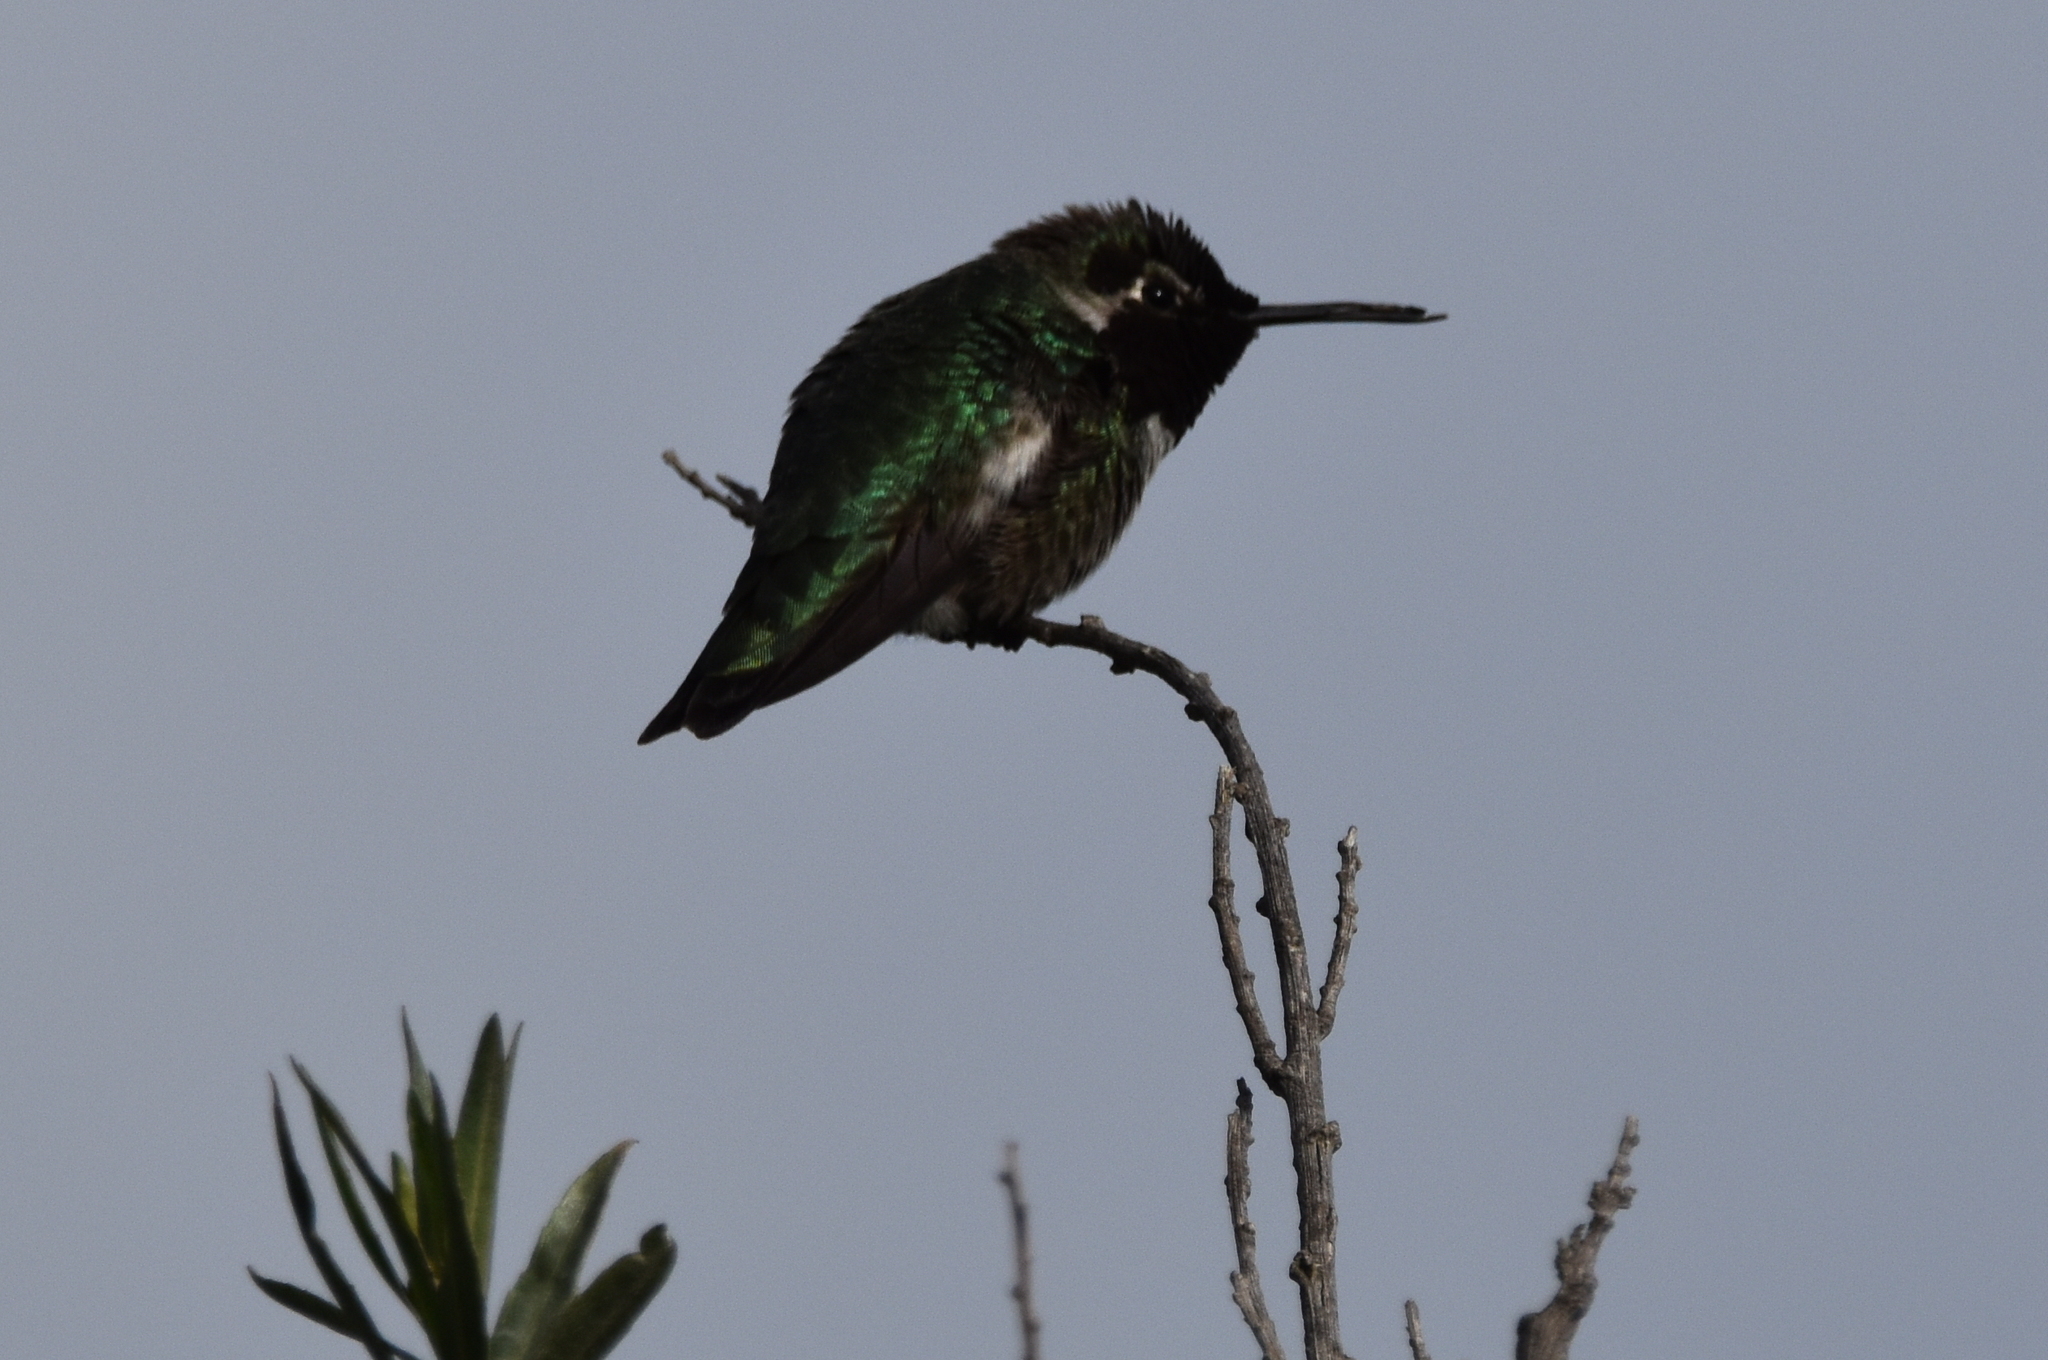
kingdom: Animalia
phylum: Chordata
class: Aves
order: Apodiformes
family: Trochilidae
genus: Calypte
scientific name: Calypte anna
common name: Anna's hummingbird
